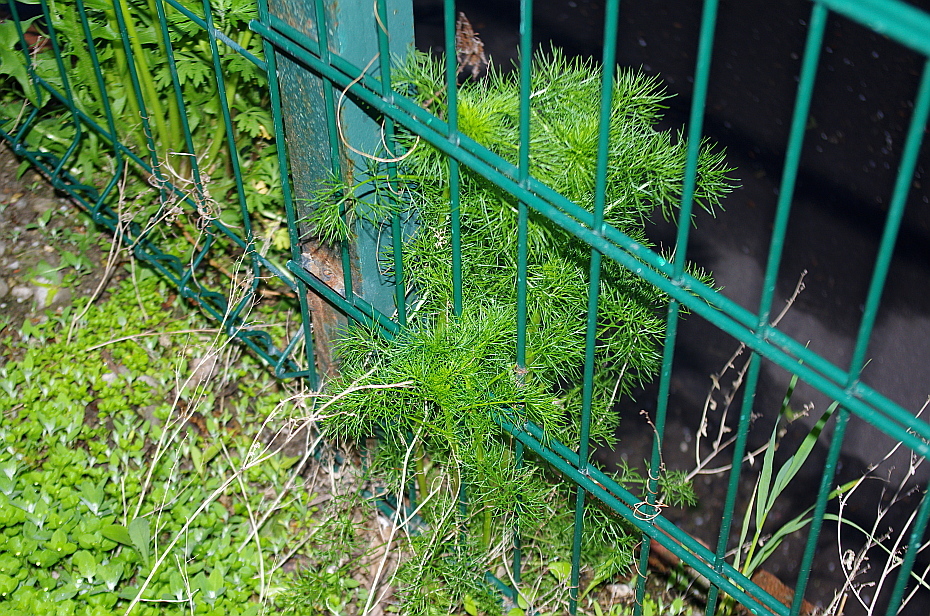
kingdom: Plantae
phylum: Tracheophyta
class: Magnoliopsida
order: Asterales
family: Asteraceae
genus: Tripleurospermum
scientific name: Tripleurospermum inodorum
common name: Scentless mayweed
